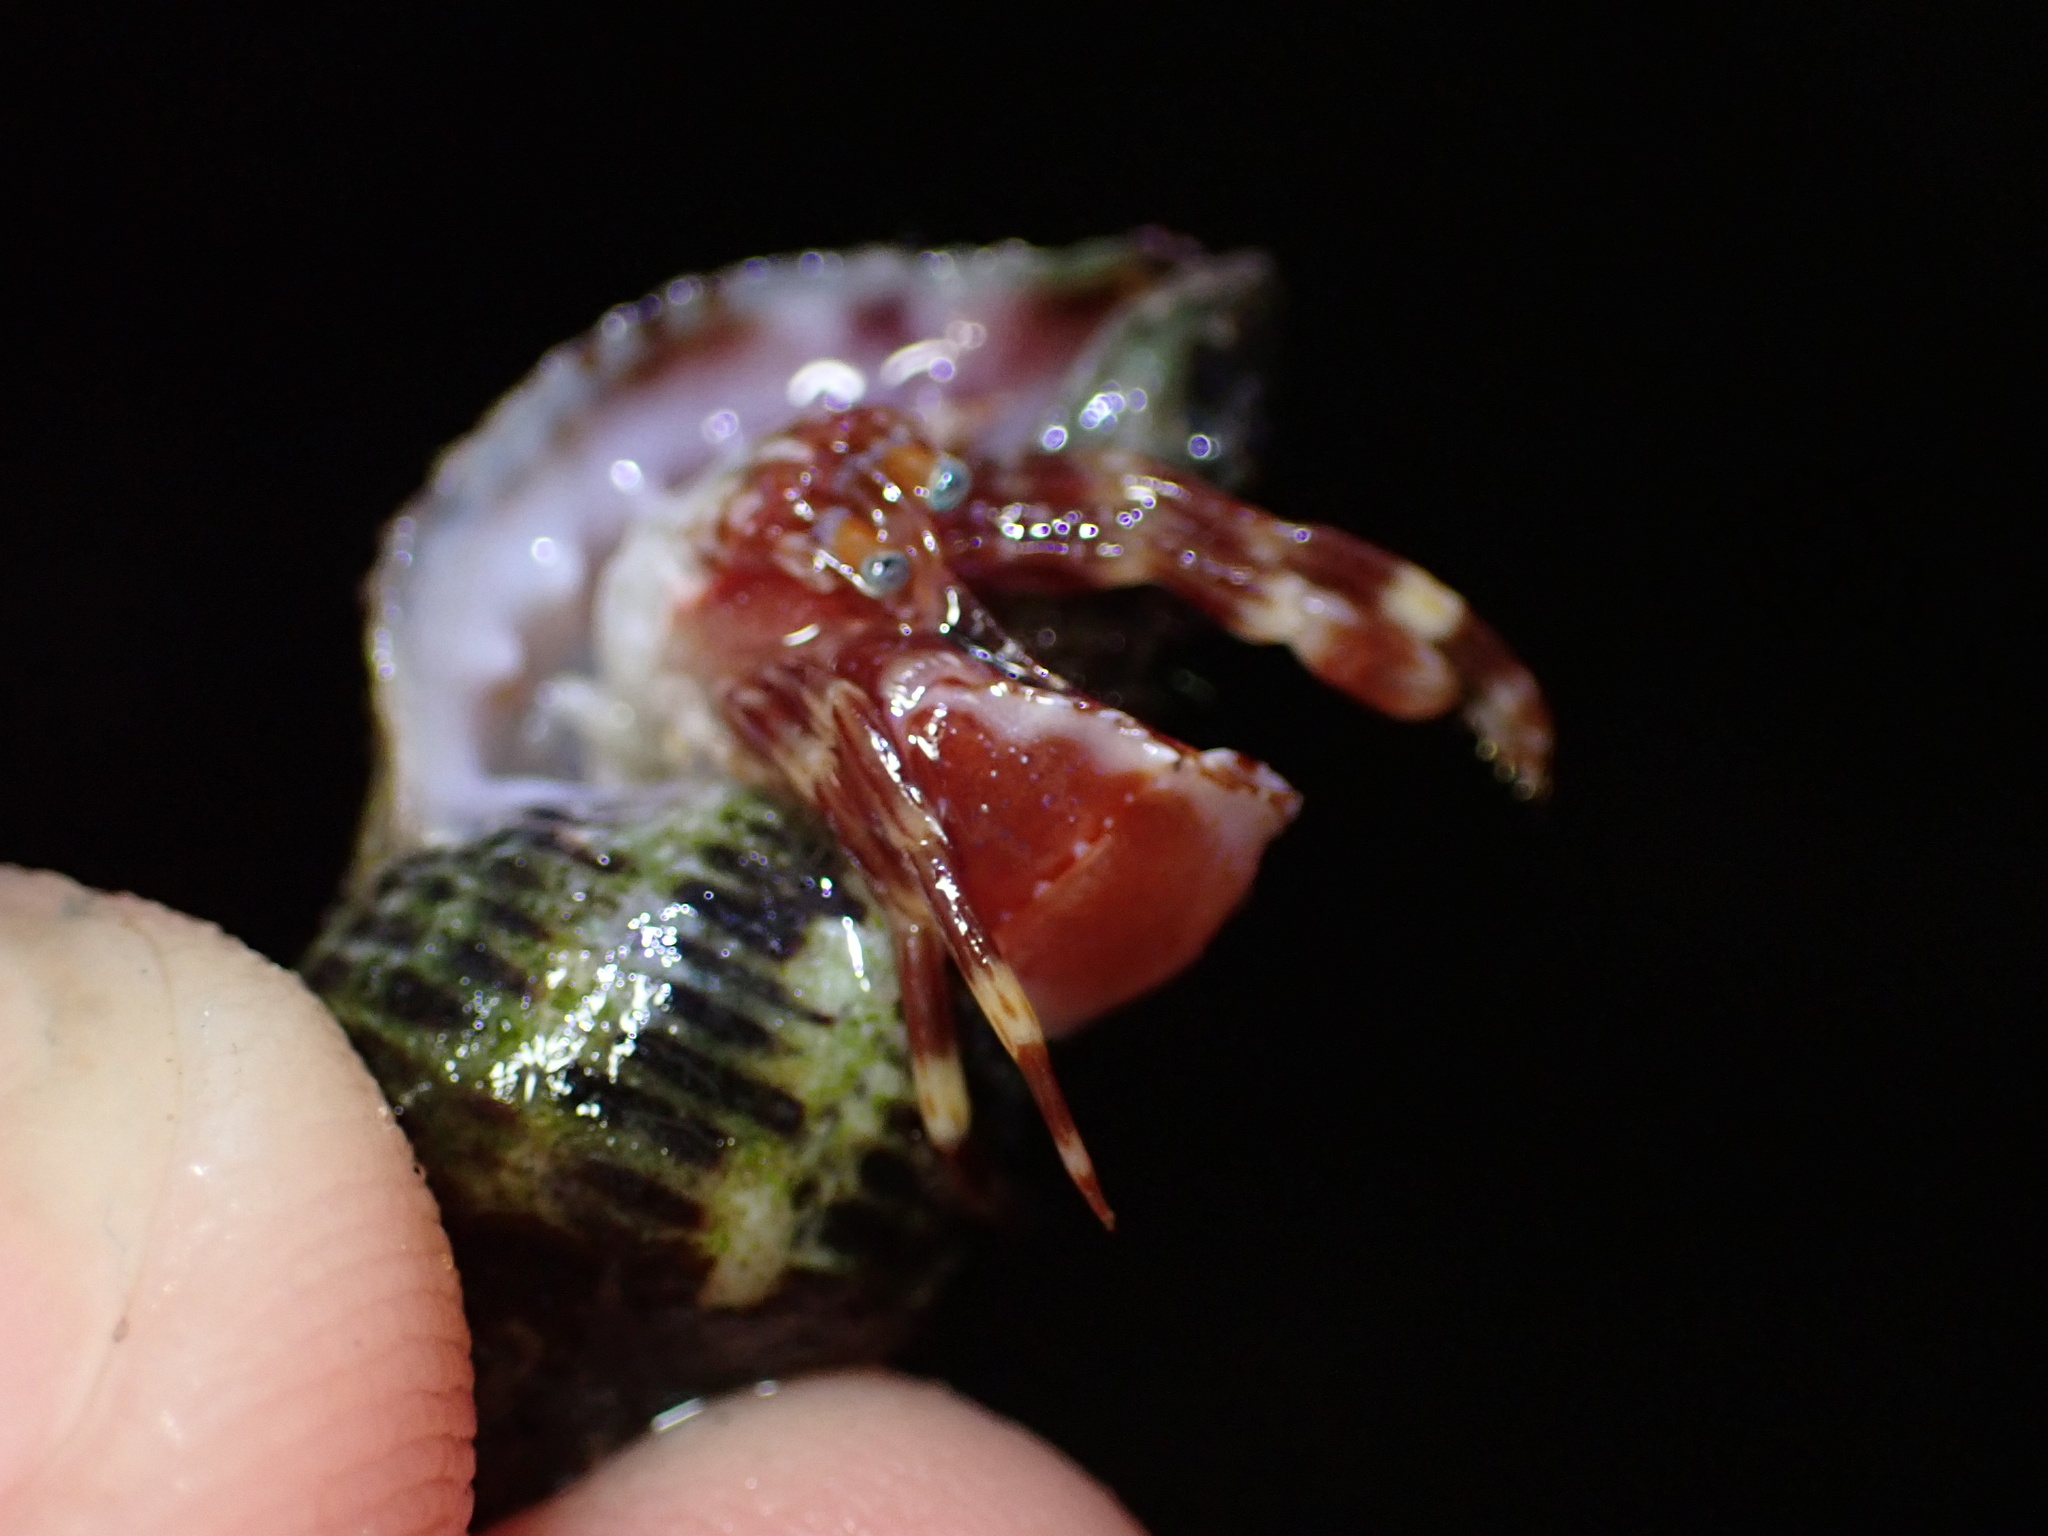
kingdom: Animalia
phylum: Arthropoda
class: Malacostraca
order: Decapoda
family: Paguridae
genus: Phimochirus
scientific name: Phimochirus californiensis
